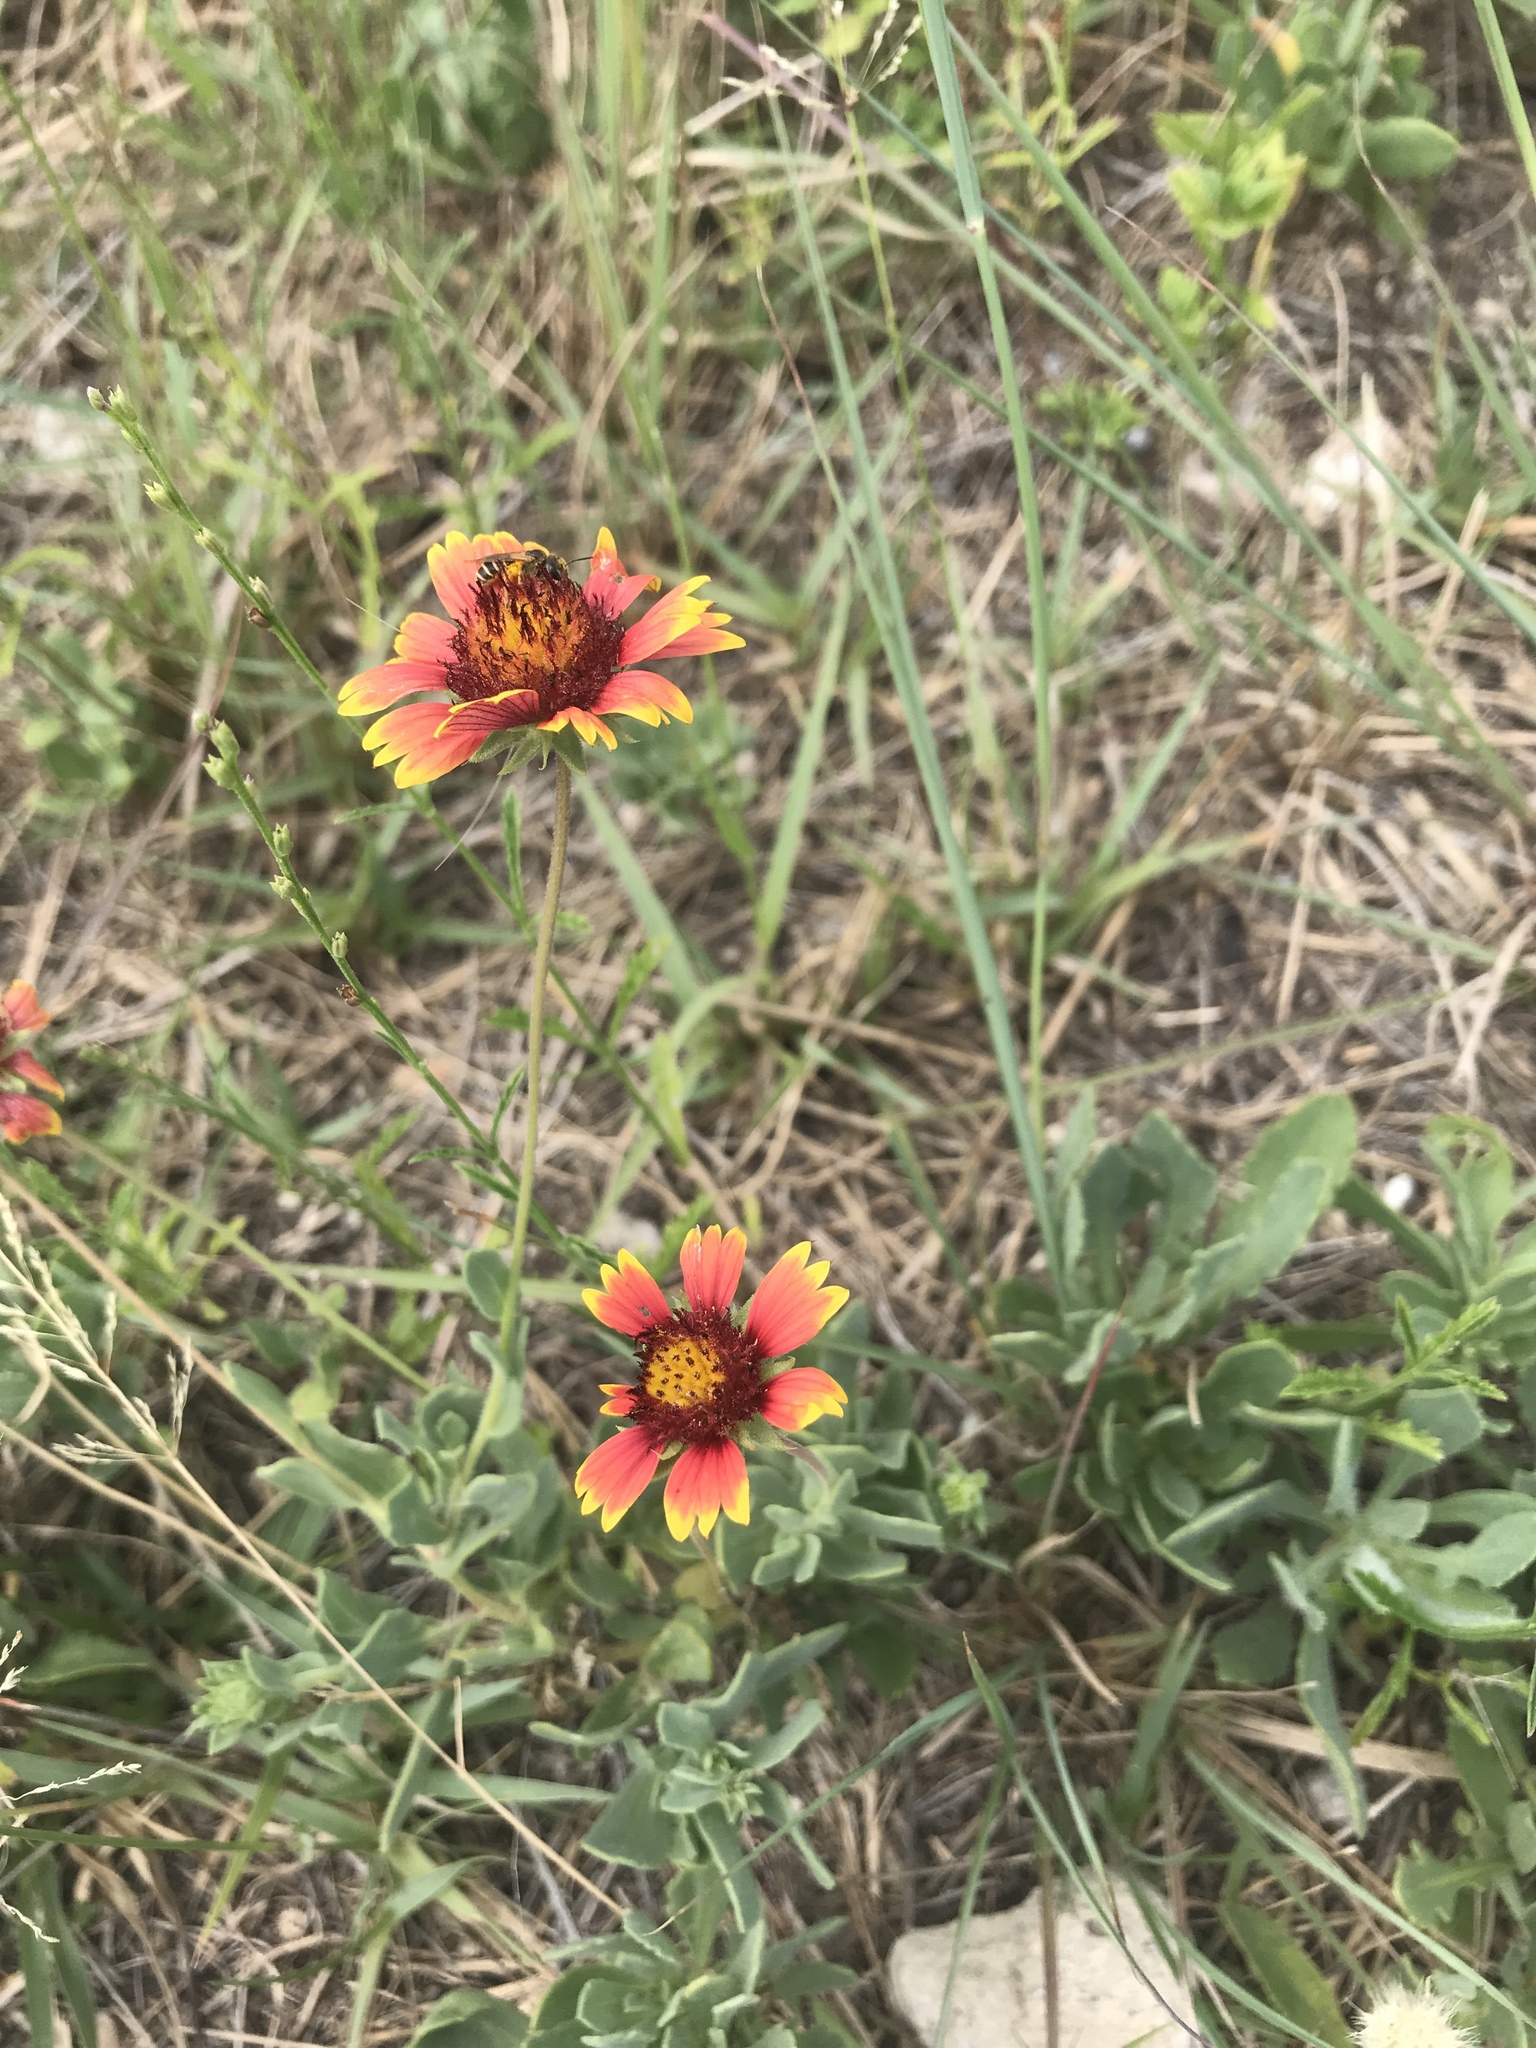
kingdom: Plantae
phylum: Tracheophyta
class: Magnoliopsida
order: Asterales
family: Asteraceae
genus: Gaillardia
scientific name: Gaillardia pulchella
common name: Firewheel
